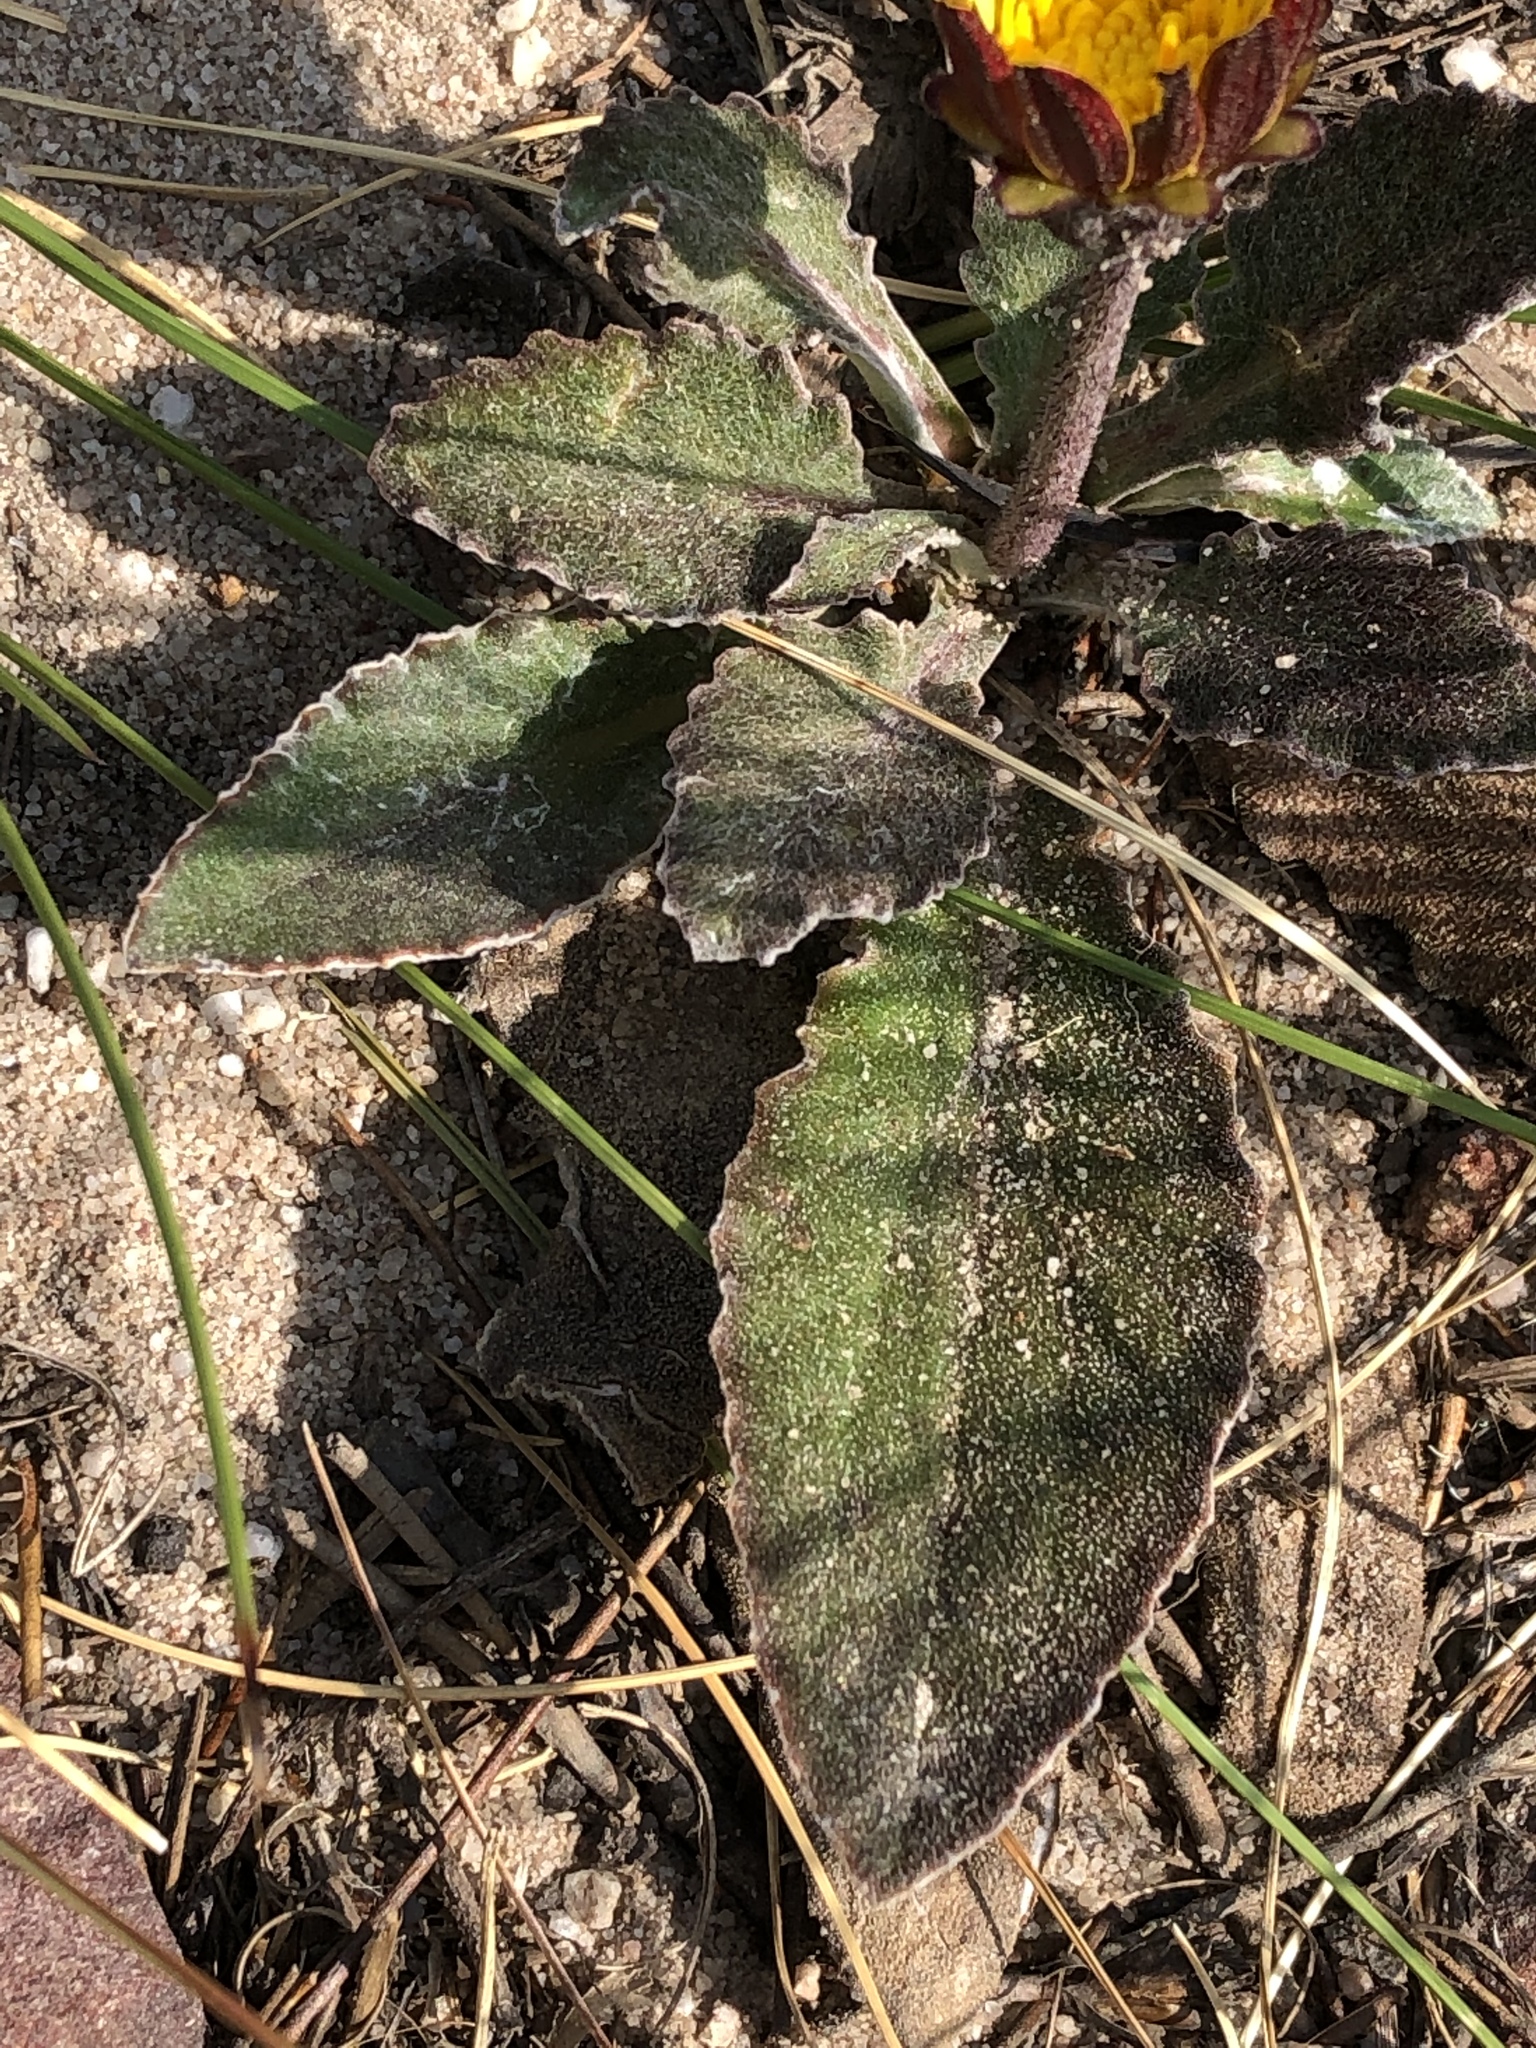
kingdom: Plantae
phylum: Tracheophyta
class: Magnoliopsida
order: Asterales
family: Asteraceae
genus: Haplocarpha
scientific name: Haplocarpha lanata
